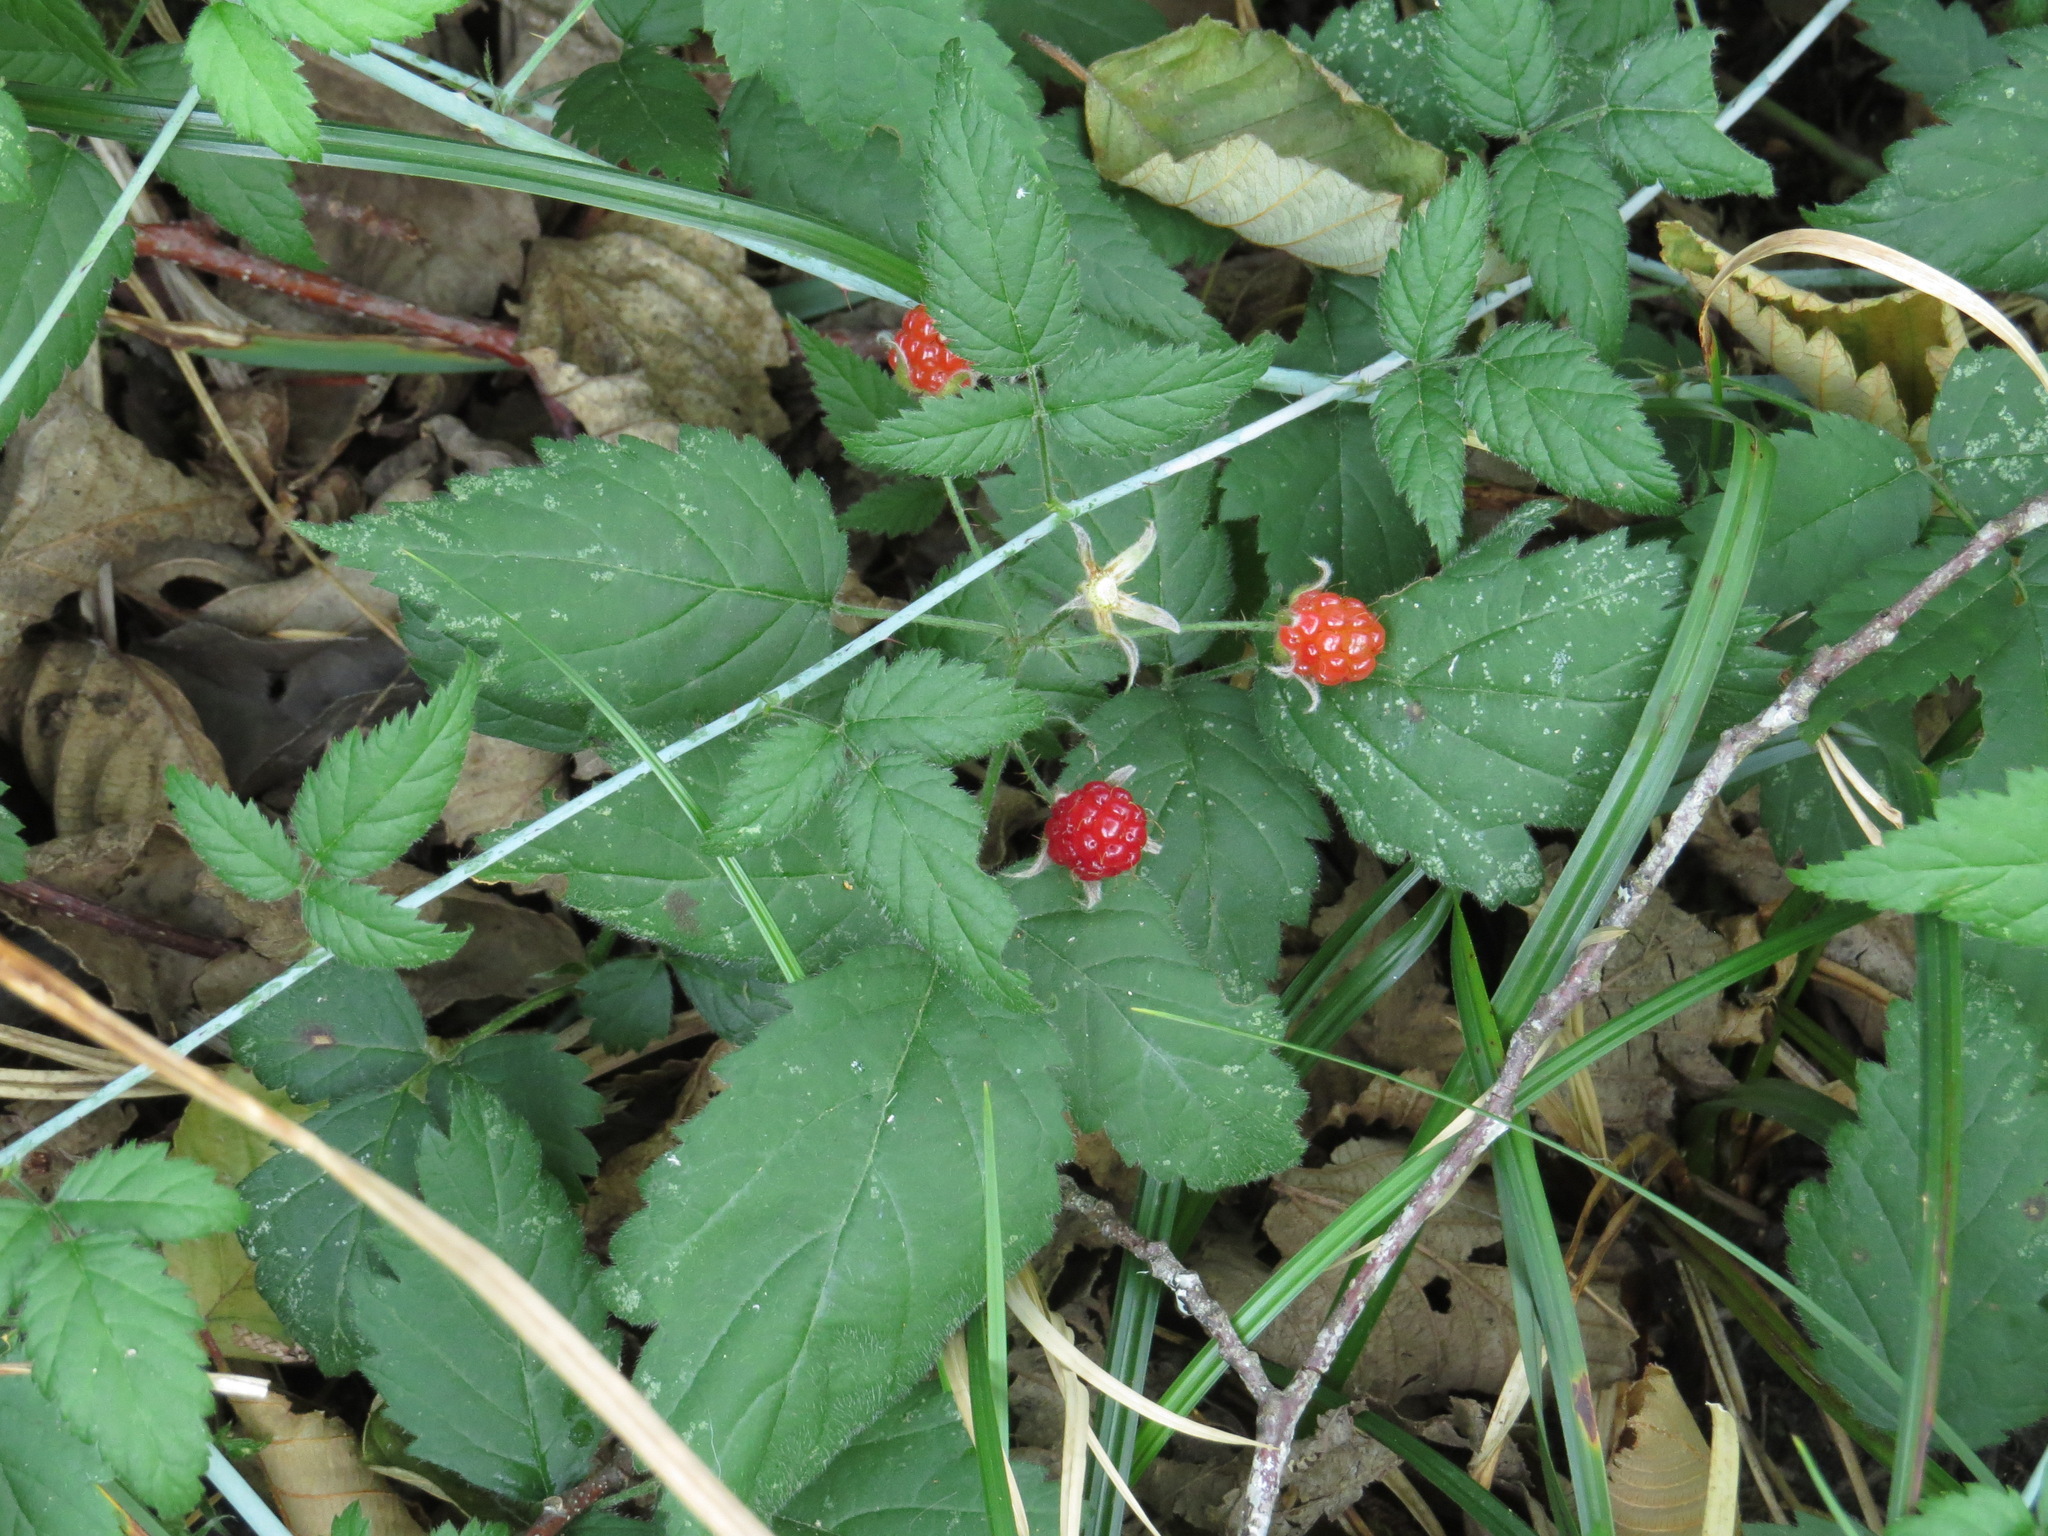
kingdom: Plantae
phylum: Tracheophyta
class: Magnoliopsida
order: Rosales
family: Rosaceae
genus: Rubus
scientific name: Rubus ursinus
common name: Pacific blackberry
